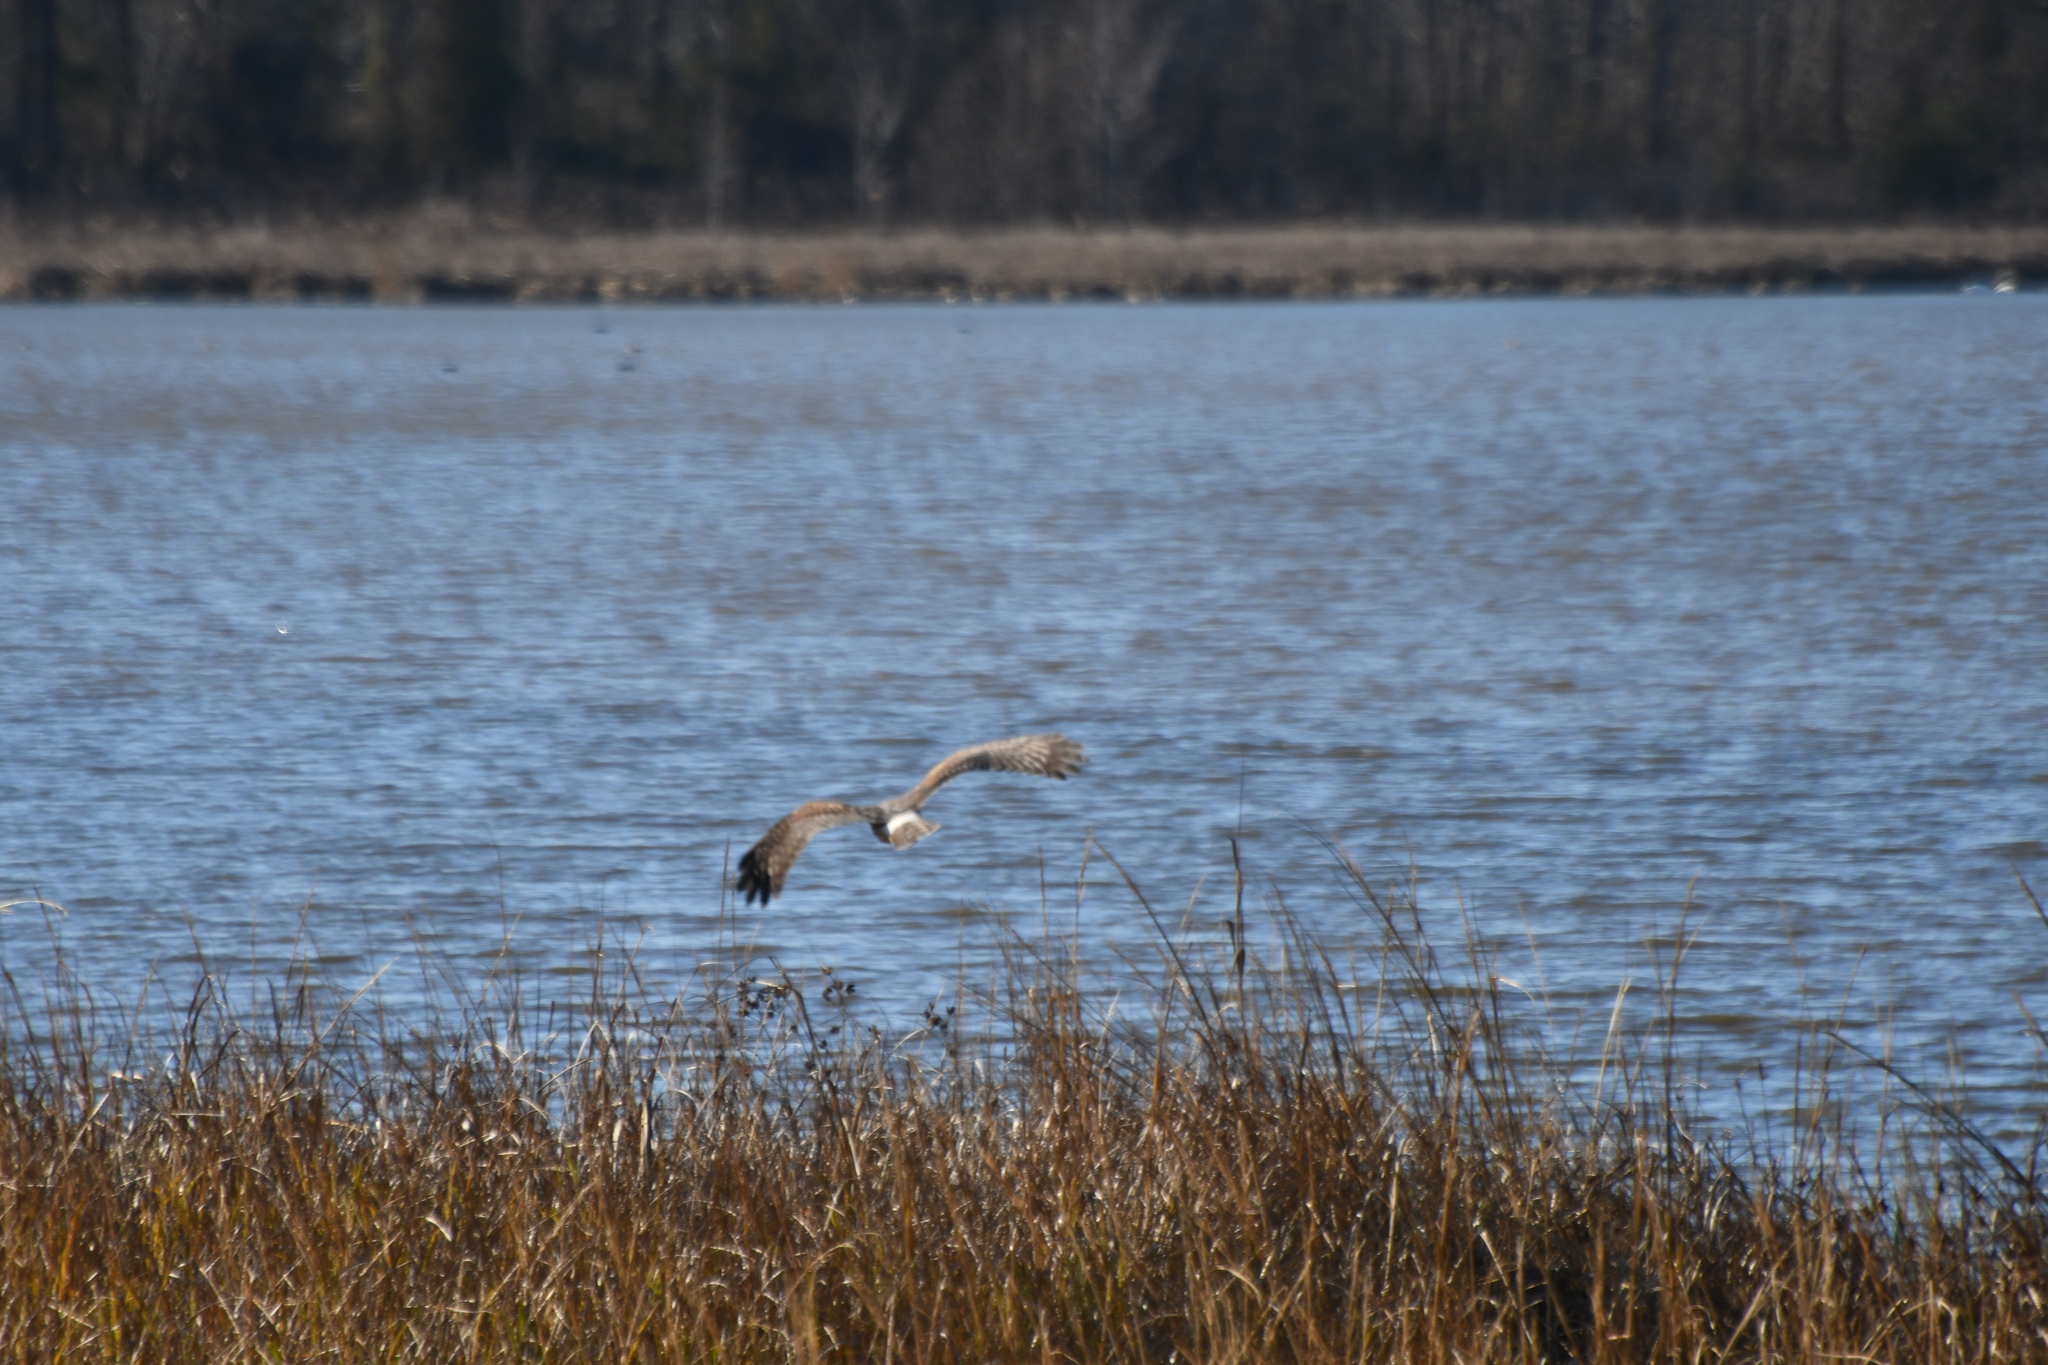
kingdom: Animalia
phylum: Chordata
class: Aves
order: Accipitriformes
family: Accipitridae
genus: Circus
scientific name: Circus cyaneus
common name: Hen harrier
